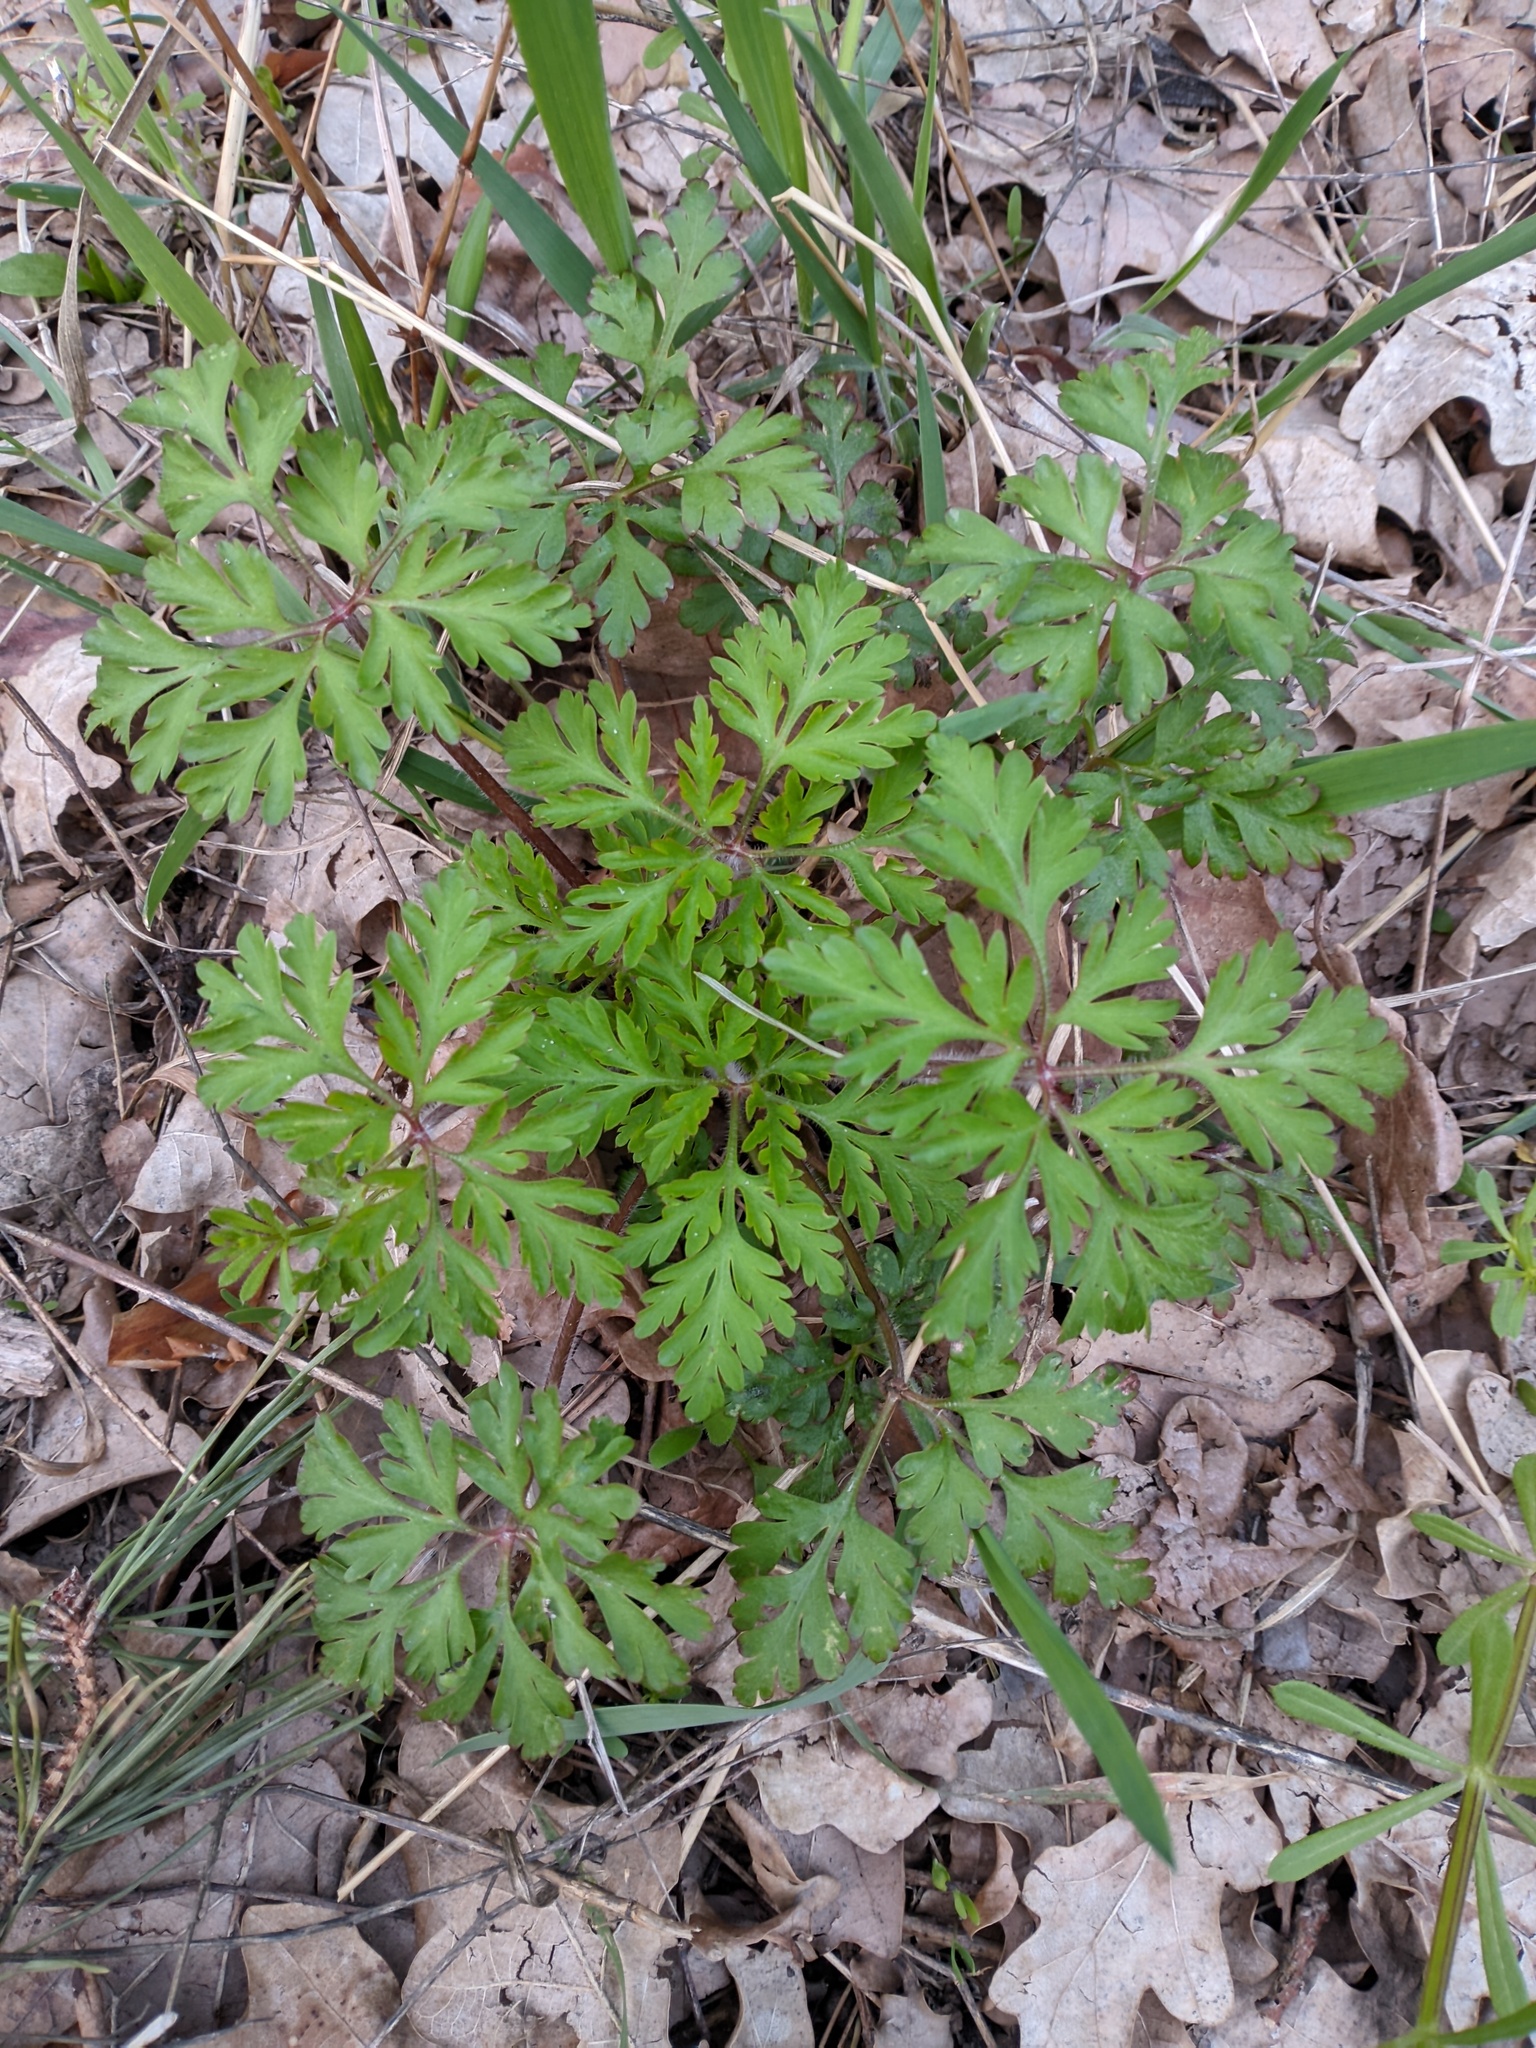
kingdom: Plantae
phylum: Tracheophyta
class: Magnoliopsida
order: Geraniales
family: Geraniaceae
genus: Geranium
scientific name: Geranium robertianum
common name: Herb-robert
